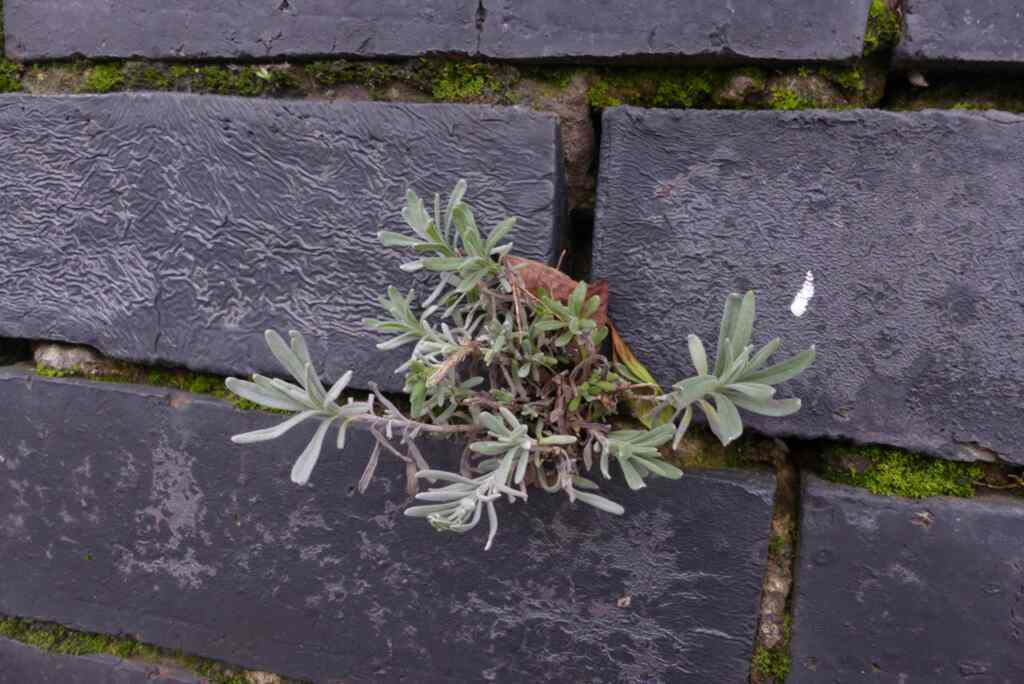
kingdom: Plantae
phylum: Tracheophyta
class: Magnoliopsida
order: Lamiales
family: Lamiaceae
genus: Lavandula
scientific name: Lavandula angustifolia
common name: Garden lavender
